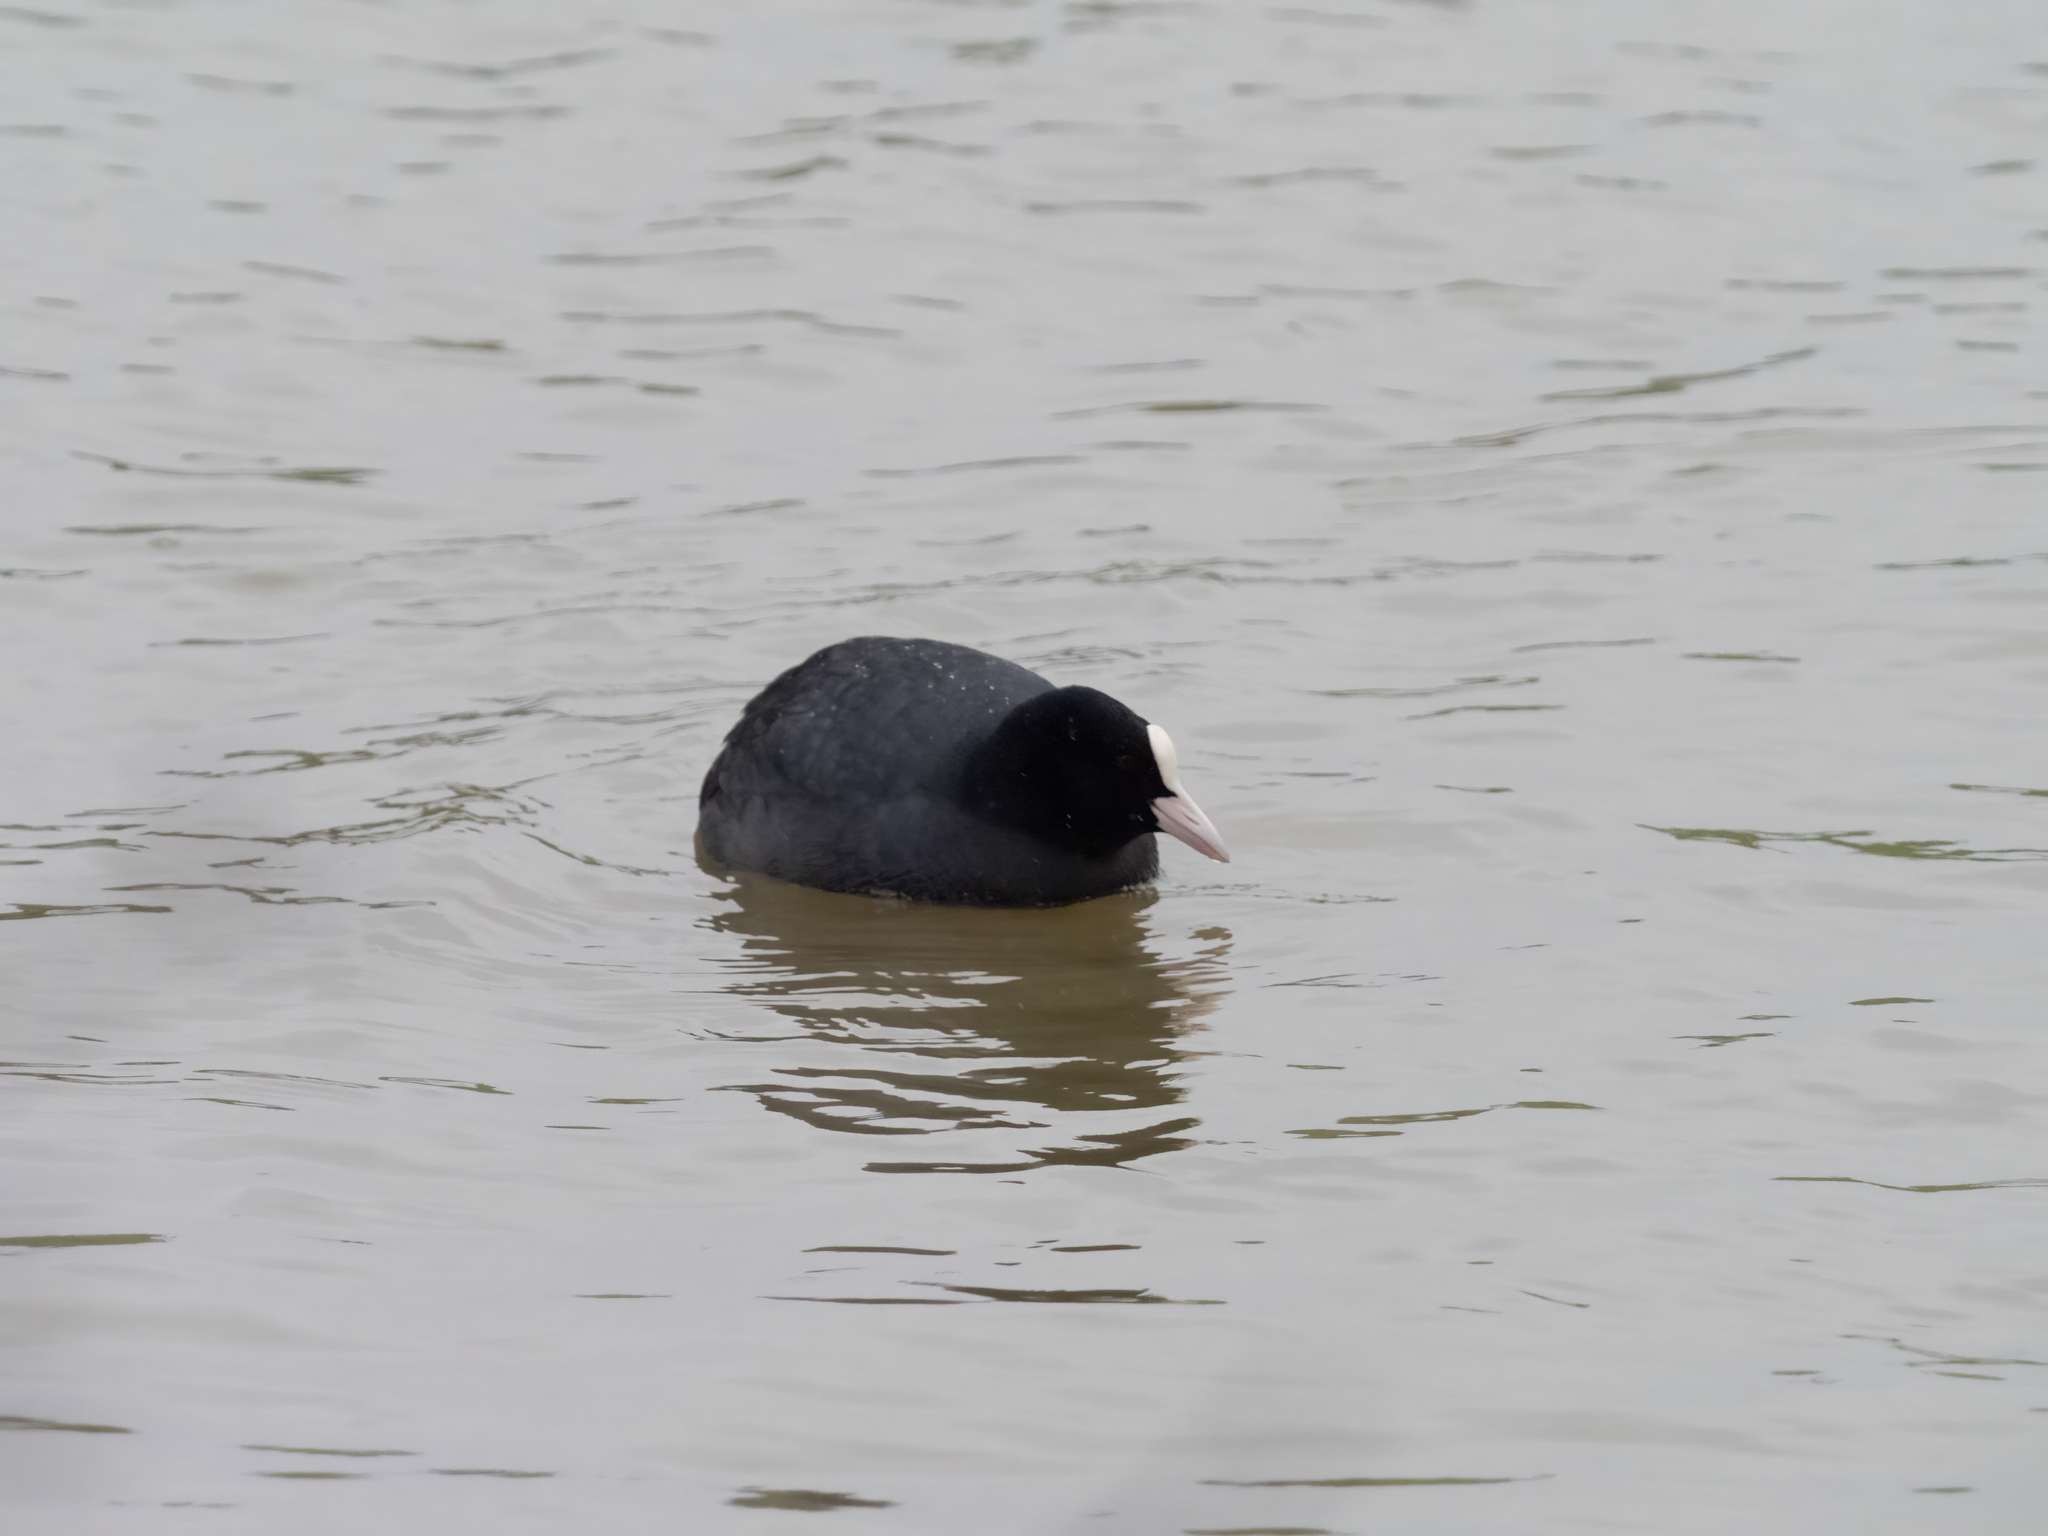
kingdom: Animalia
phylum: Chordata
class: Aves
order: Gruiformes
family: Rallidae
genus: Fulica
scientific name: Fulica atra
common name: Eurasian coot
